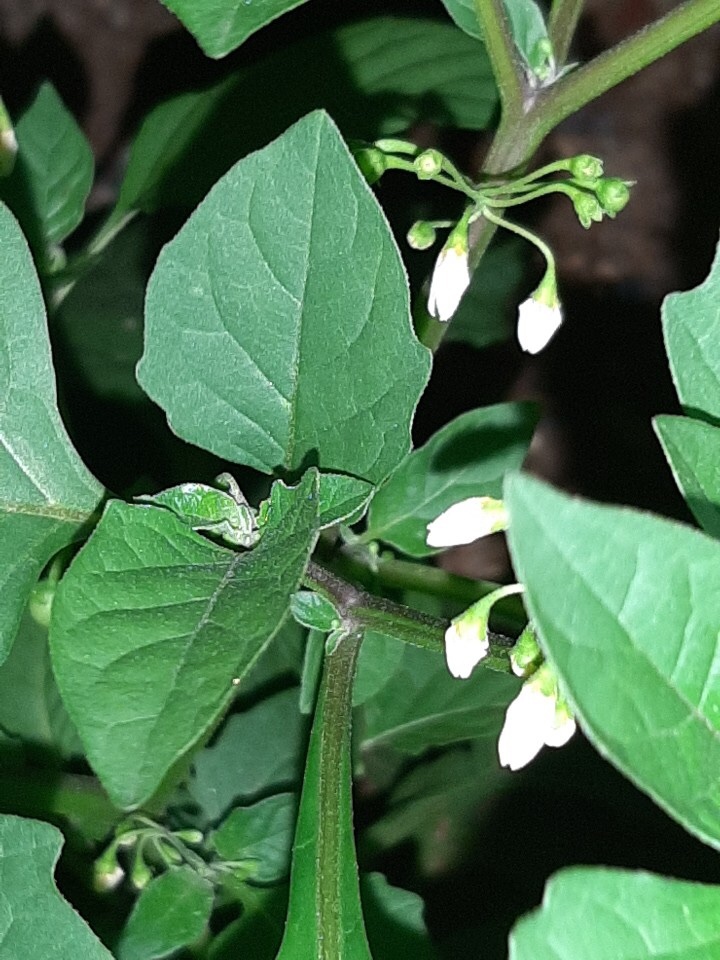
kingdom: Plantae
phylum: Tracheophyta
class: Magnoliopsida
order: Solanales
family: Solanaceae
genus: Solanum
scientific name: Solanum nigrum
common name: Black nightshade
